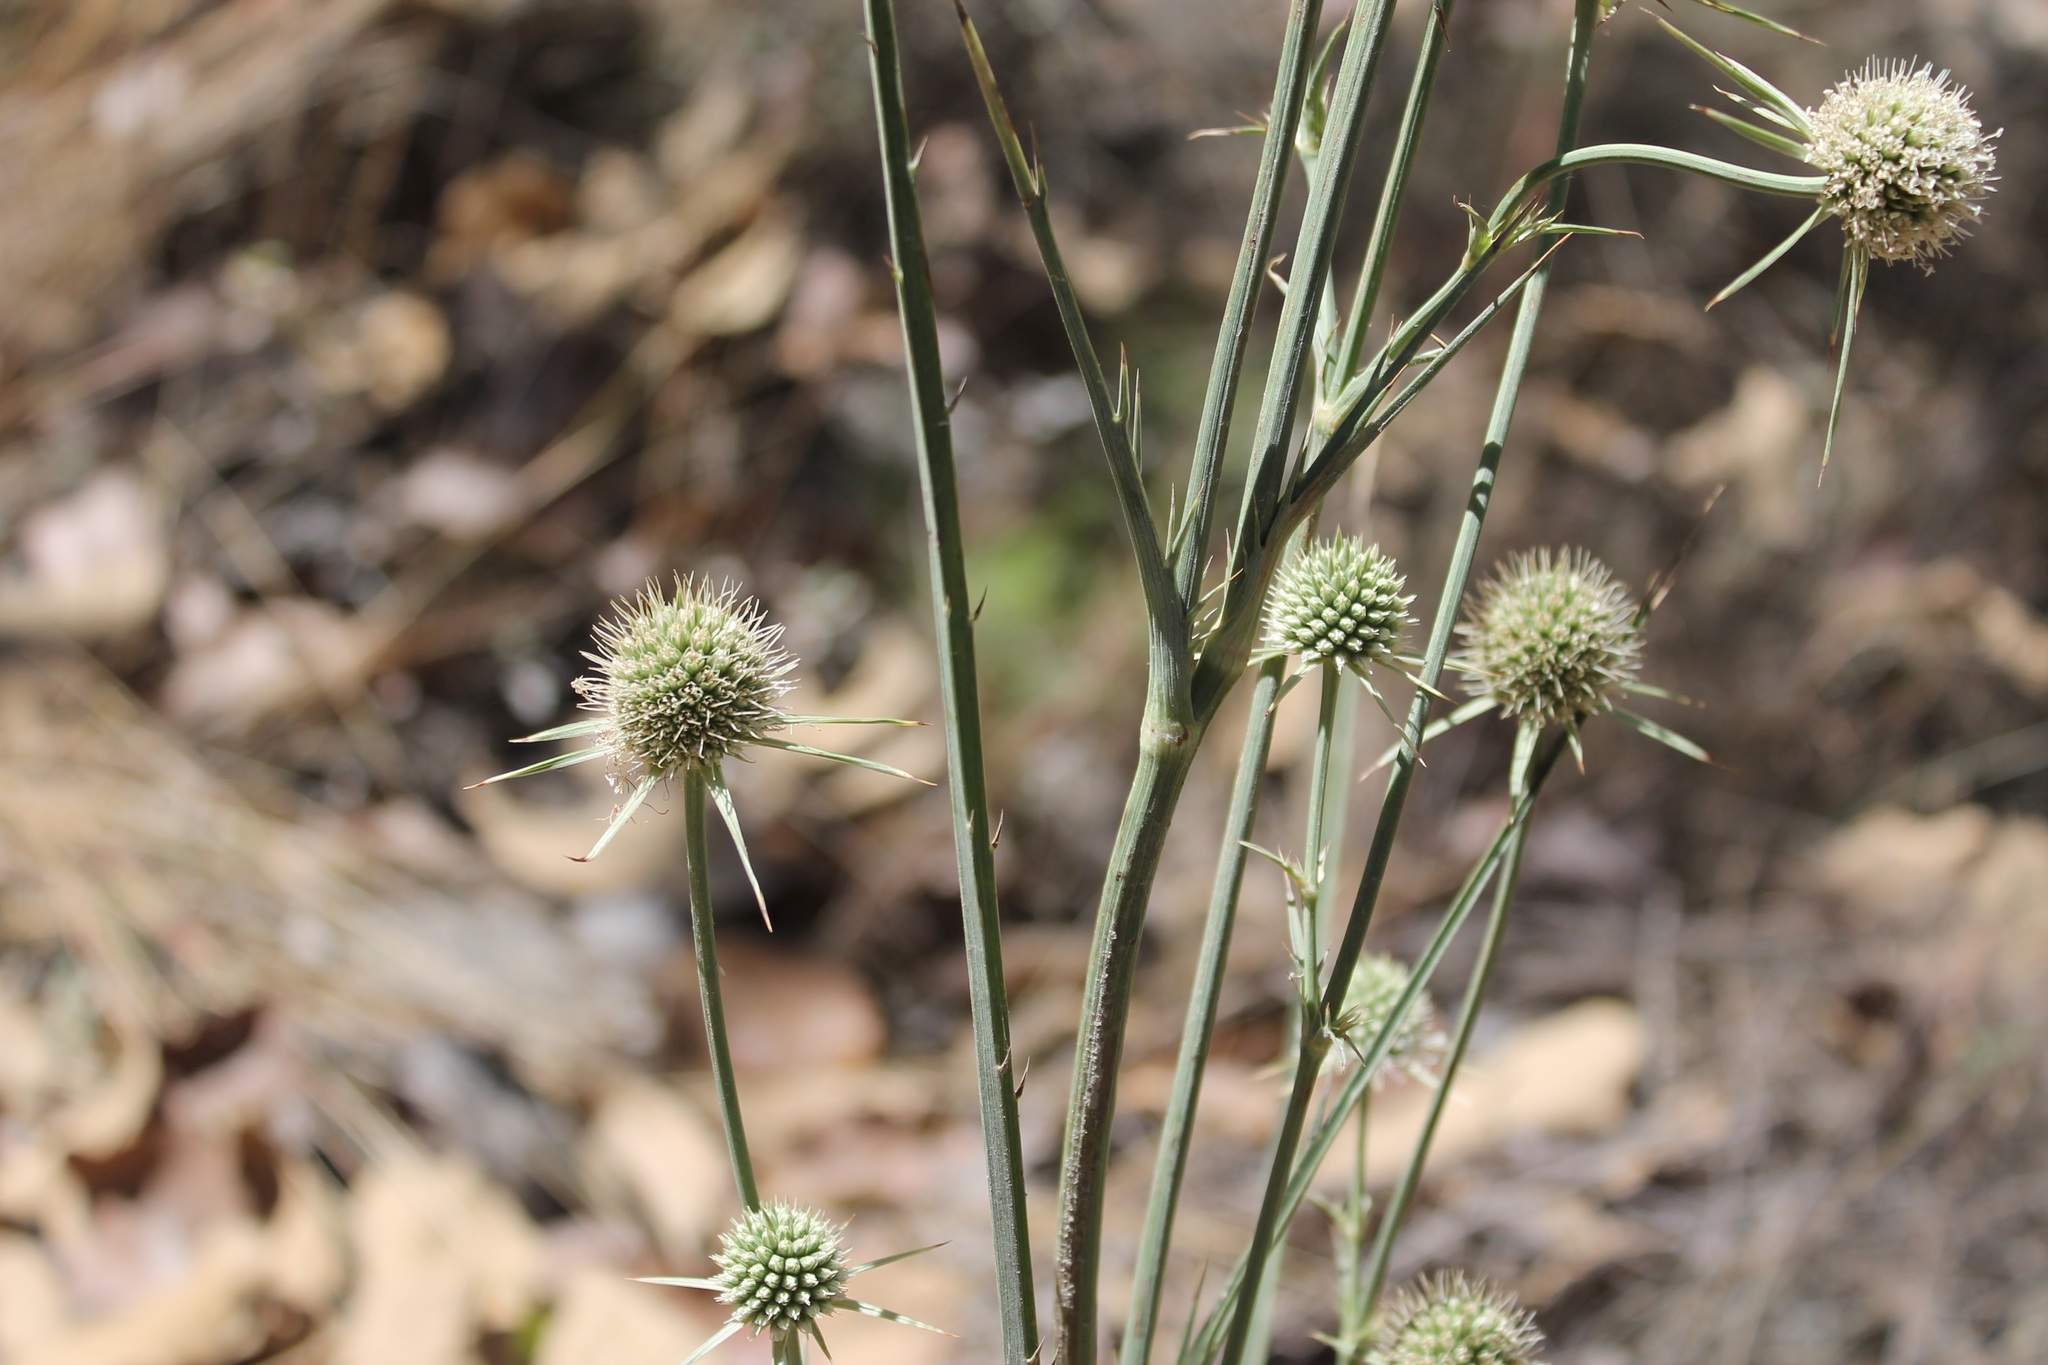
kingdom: Plantae
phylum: Tracheophyta
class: Magnoliopsida
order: Apiales
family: Apiaceae
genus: Eryngium
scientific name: Eryngium mexiae
